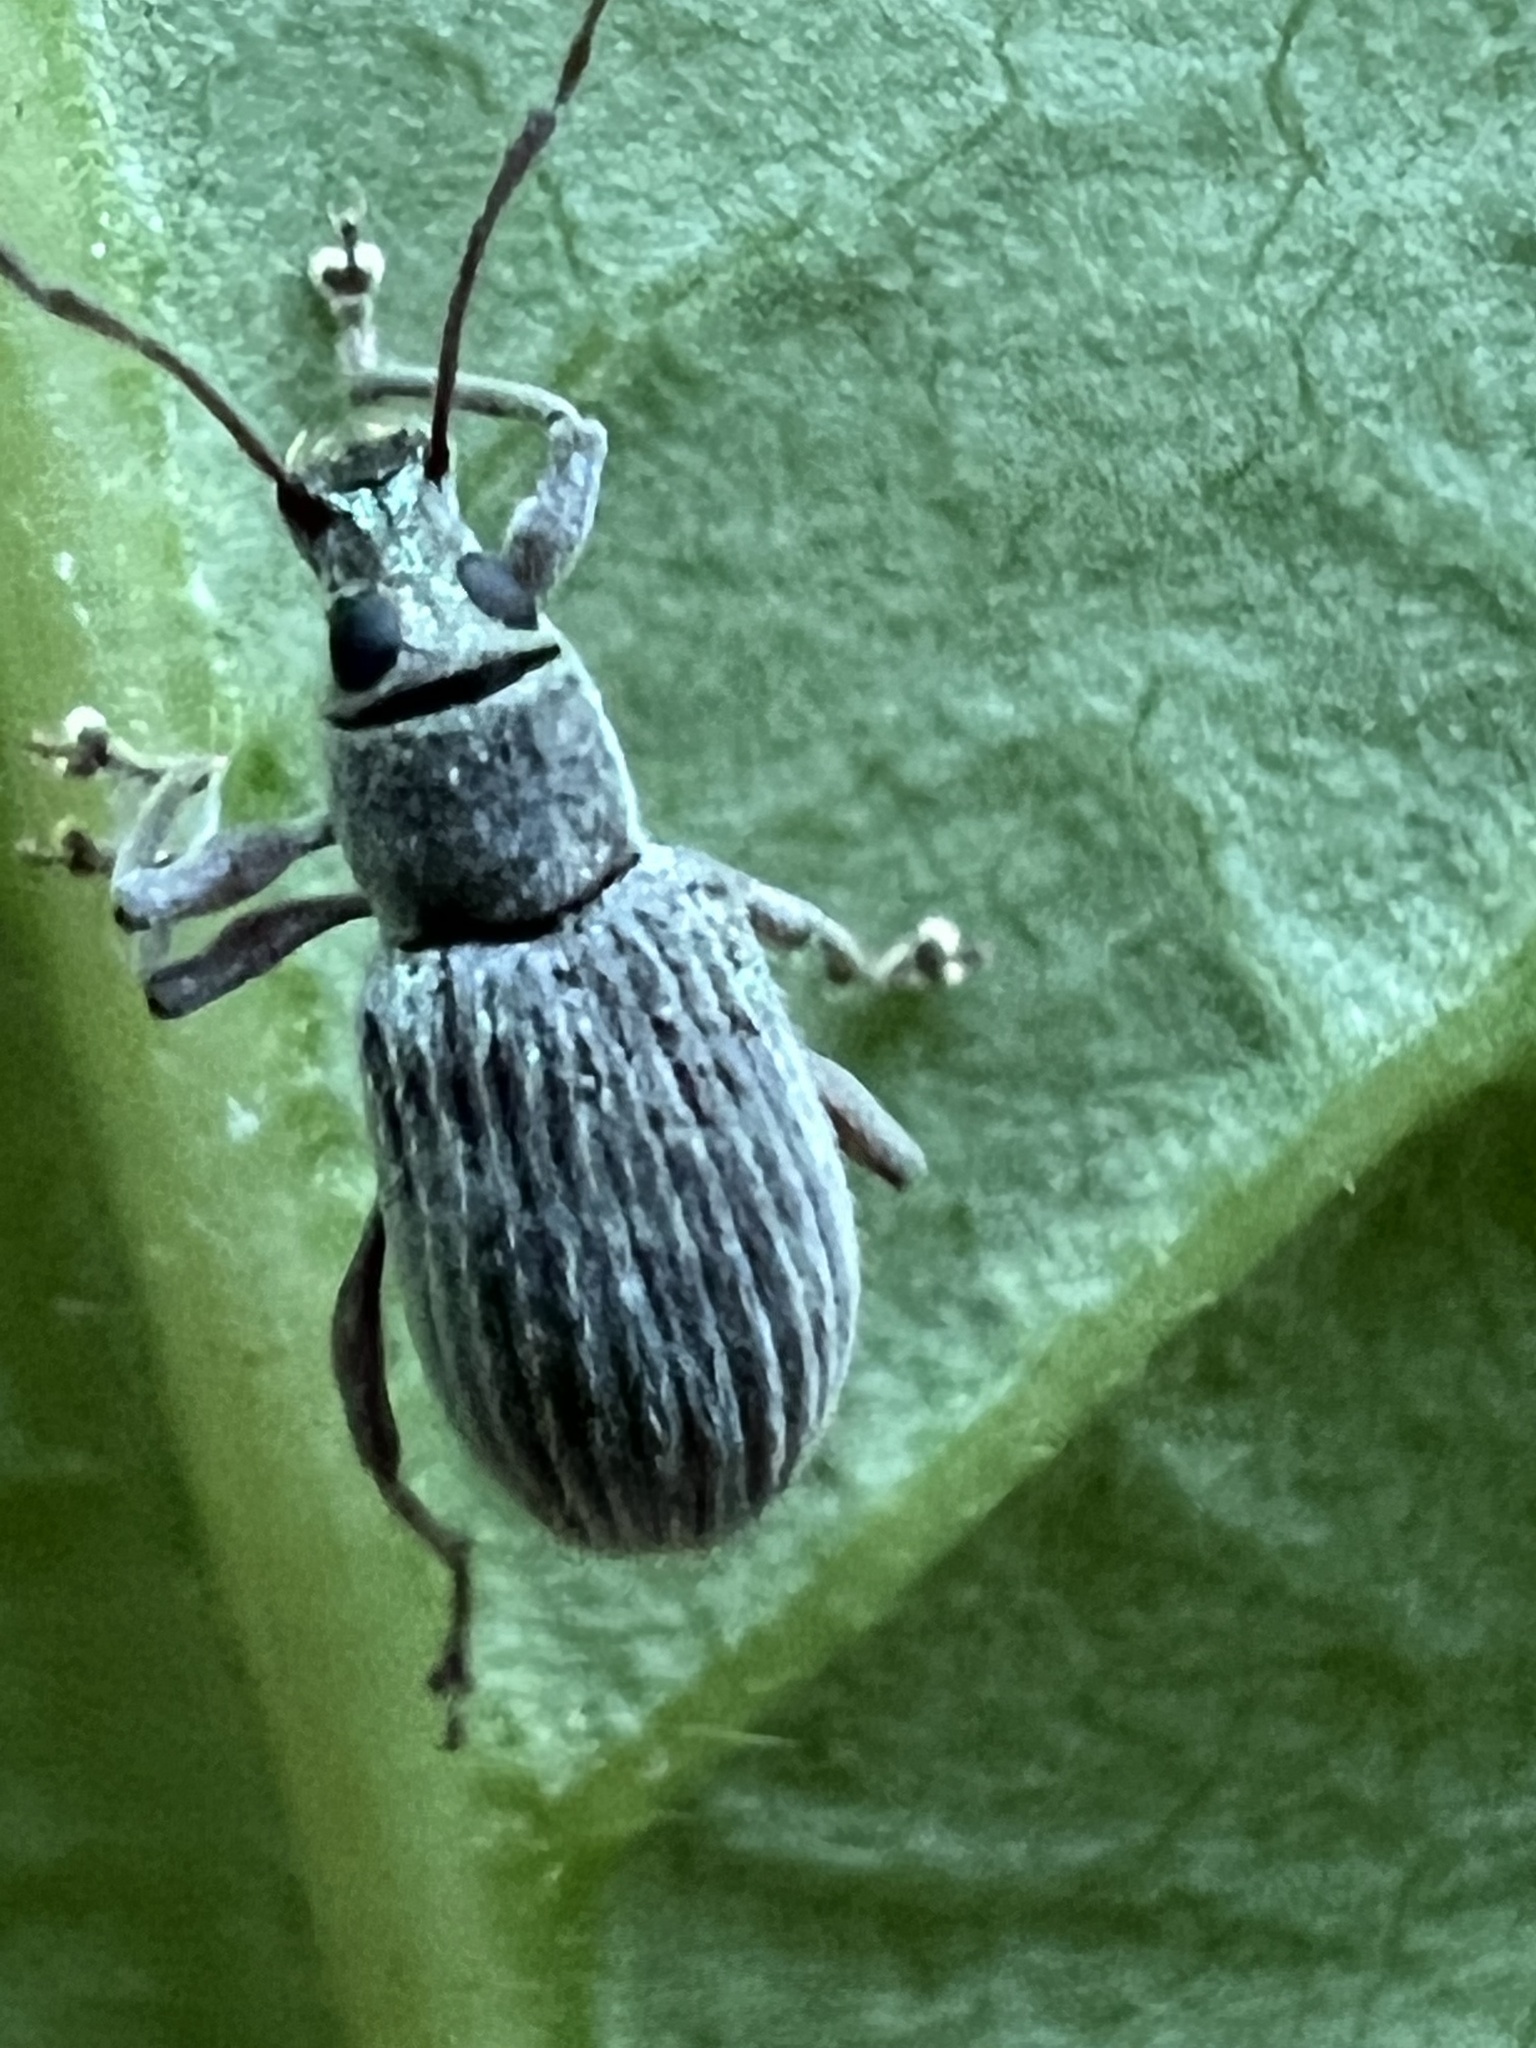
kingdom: Animalia
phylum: Arthropoda
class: Insecta
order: Coleoptera
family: Curculionidae
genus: Cyrtepistomus
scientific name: Cyrtepistomus castaneus
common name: Weevil
